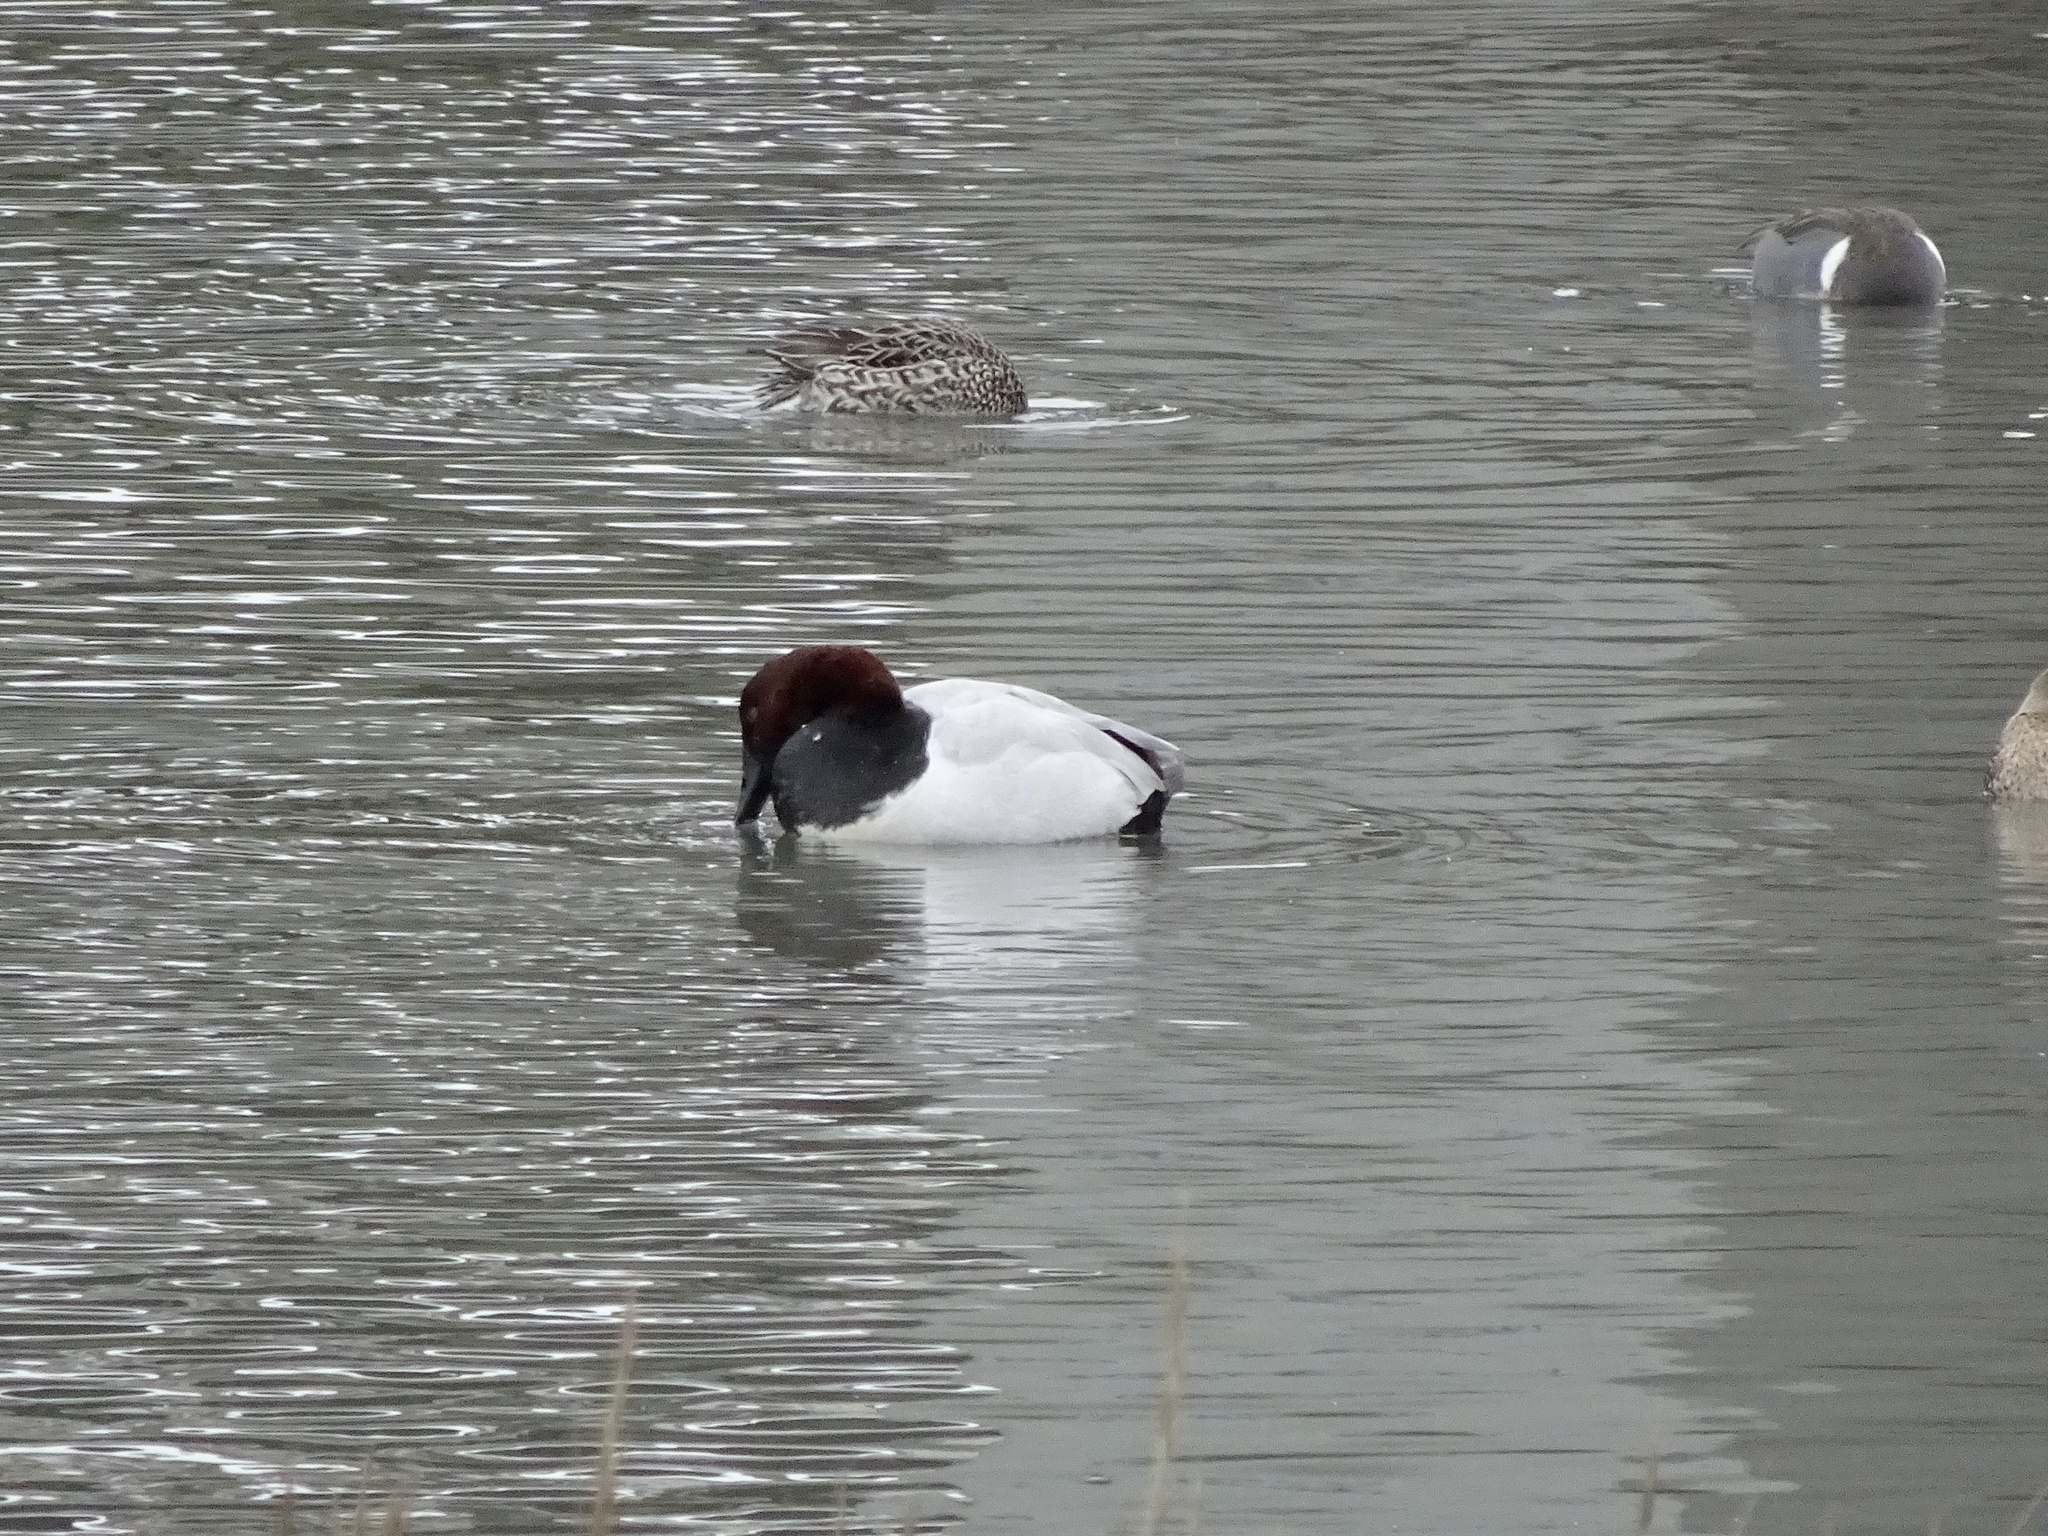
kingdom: Animalia
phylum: Chordata
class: Aves
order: Anseriformes
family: Anatidae
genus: Aythya
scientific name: Aythya valisineria
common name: Canvasback
